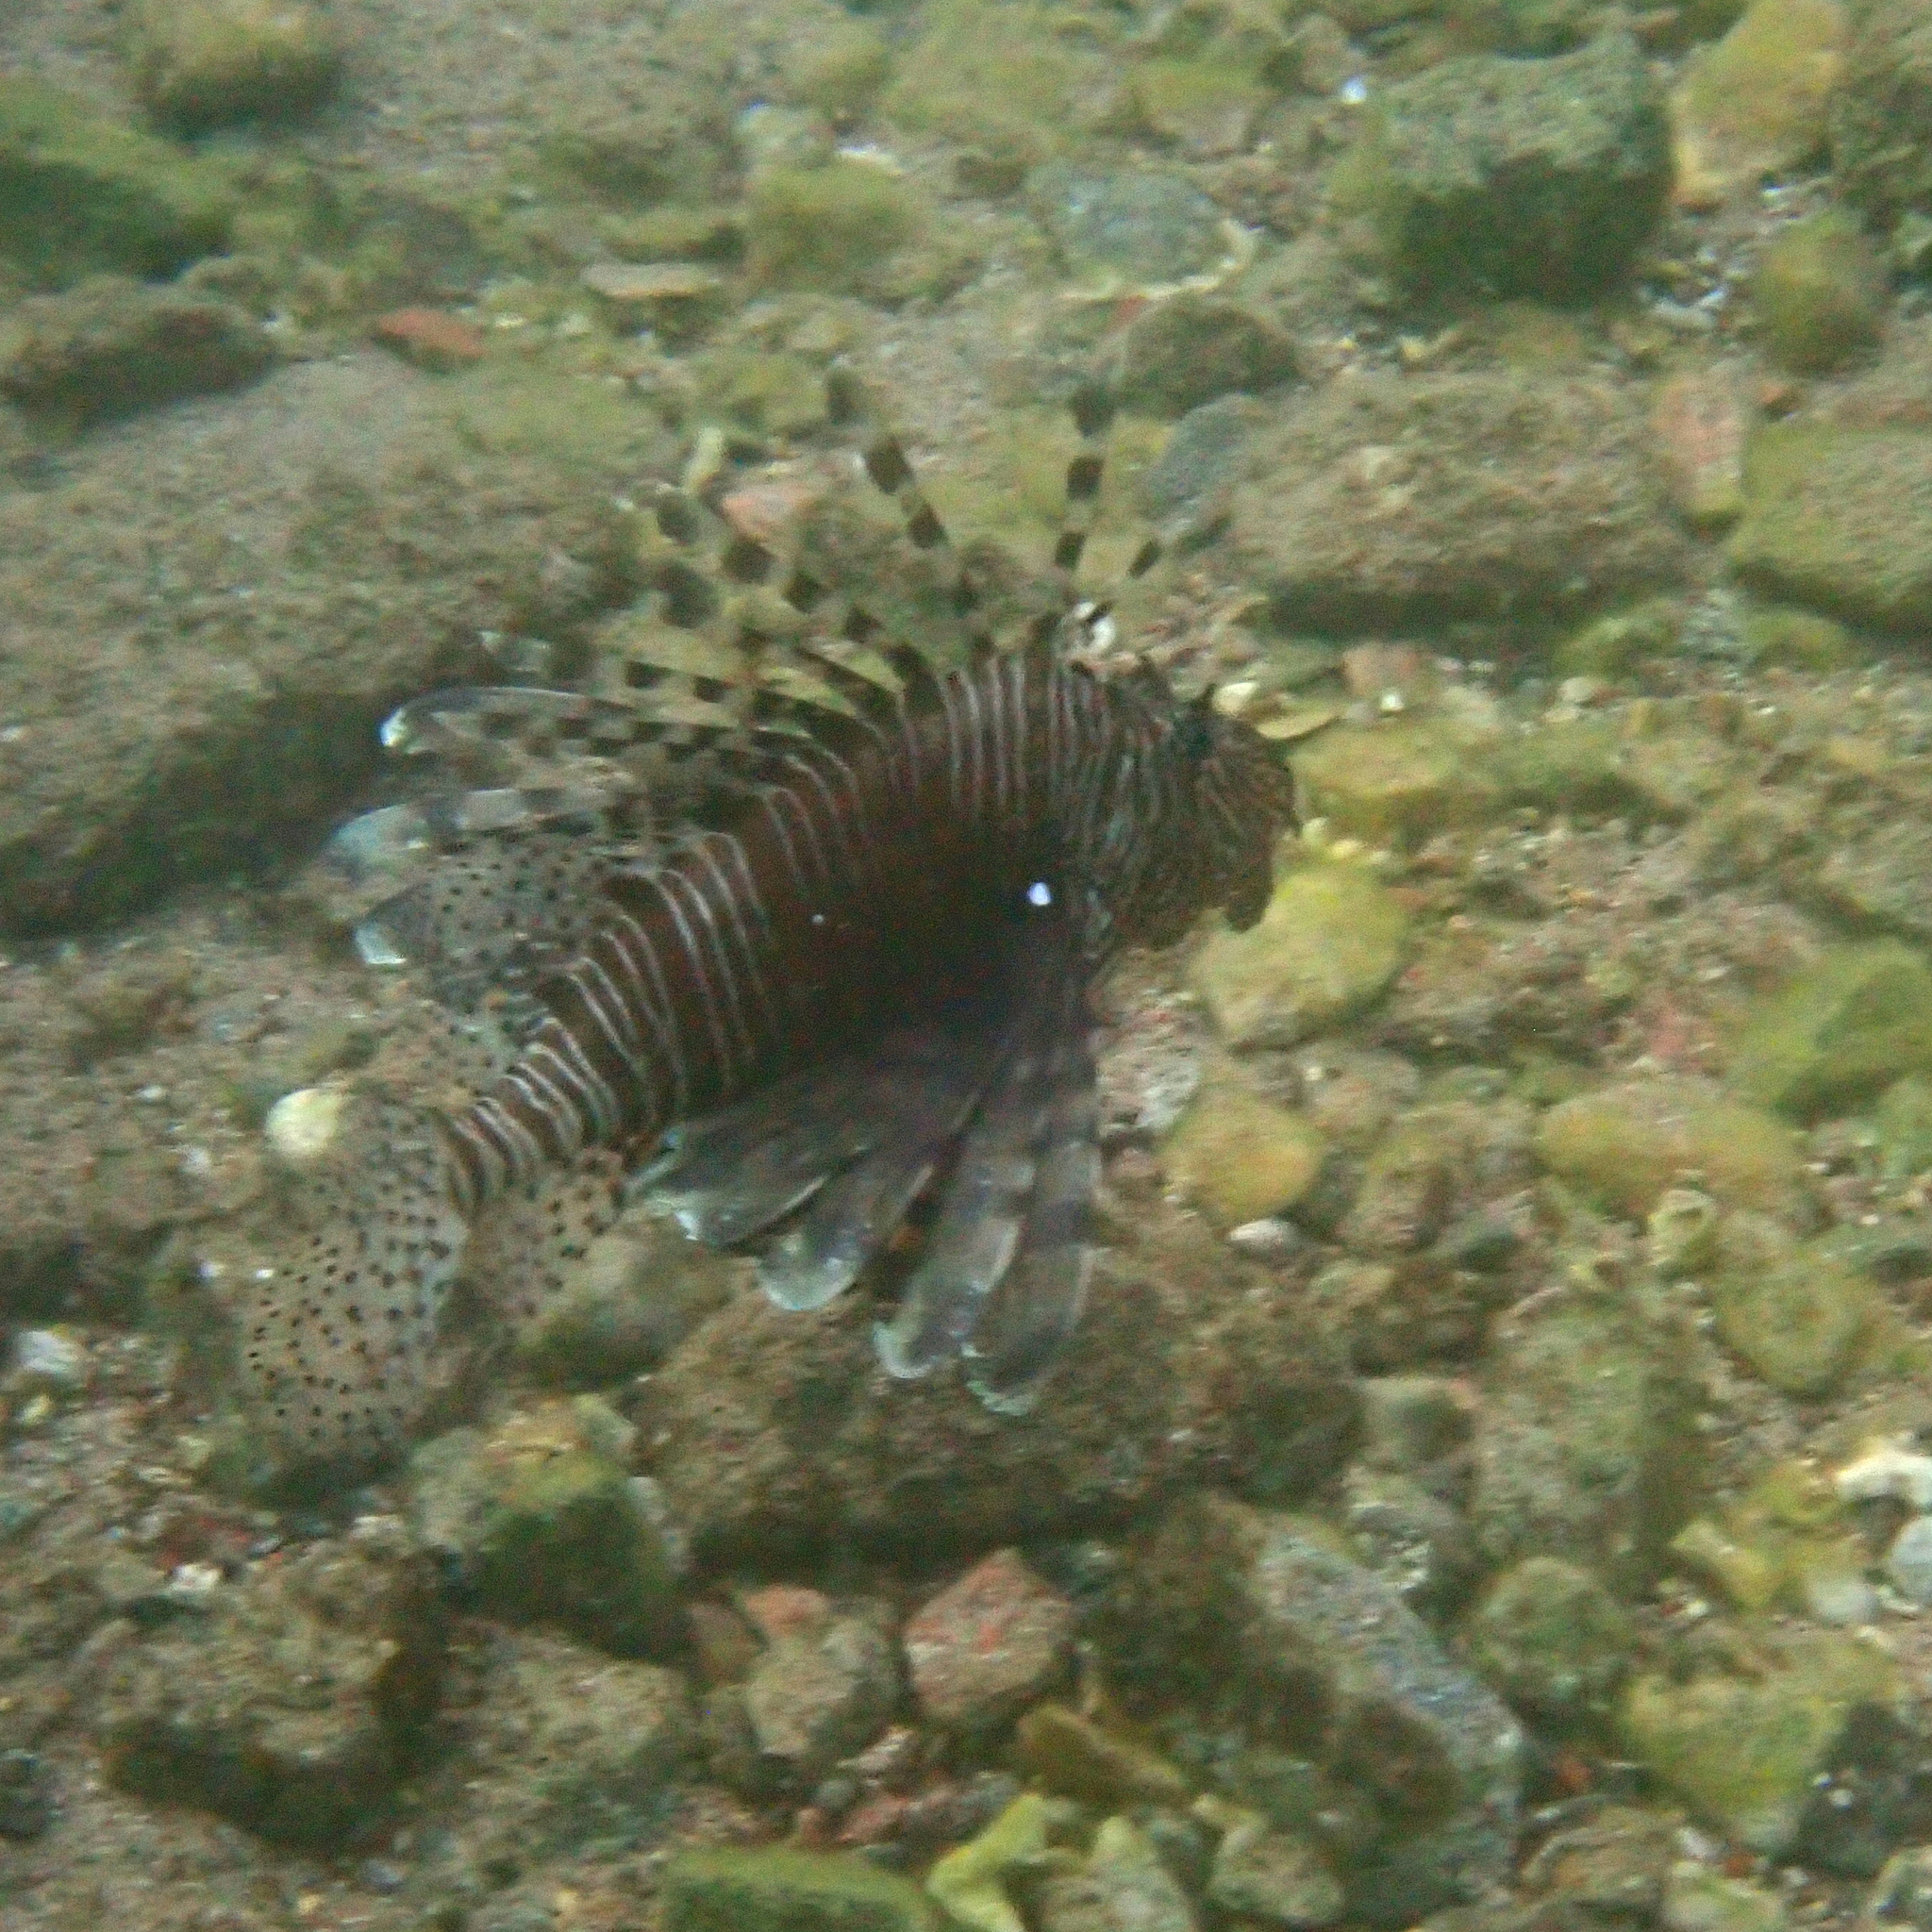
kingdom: Animalia
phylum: Chordata
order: Scorpaeniformes
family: Scorpaenidae
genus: Pterois
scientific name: Pterois miles
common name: Devil firefish
